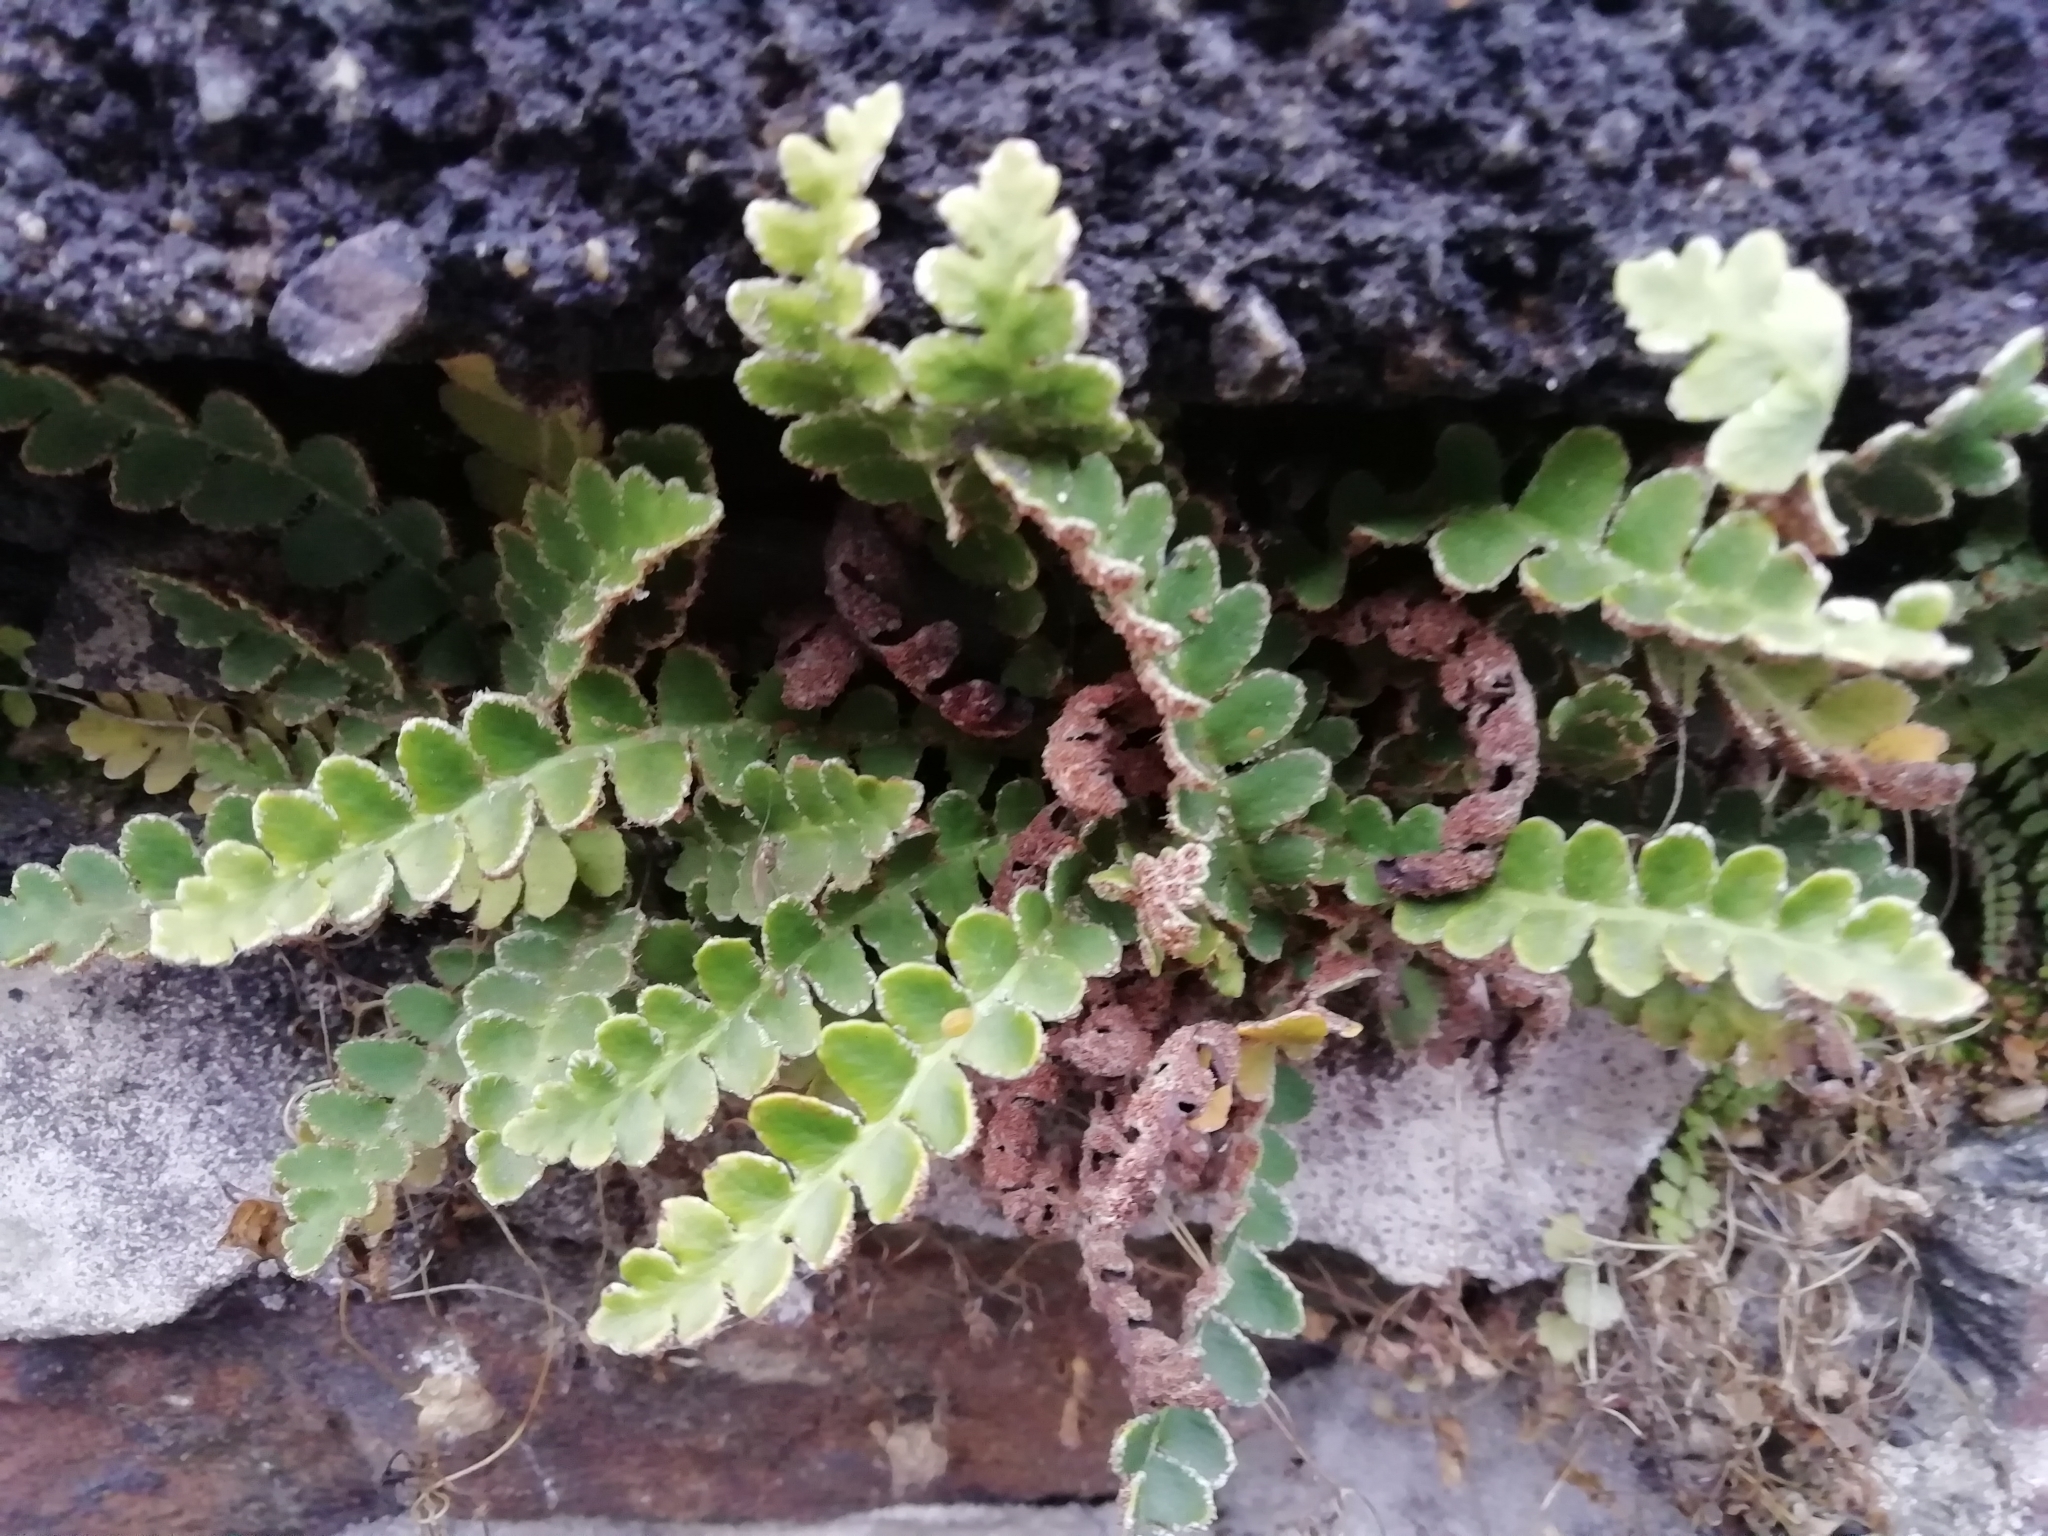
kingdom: Plantae
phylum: Tracheophyta
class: Polypodiopsida
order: Polypodiales
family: Aspleniaceae
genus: Asplenium
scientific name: Asplenium ceterach
